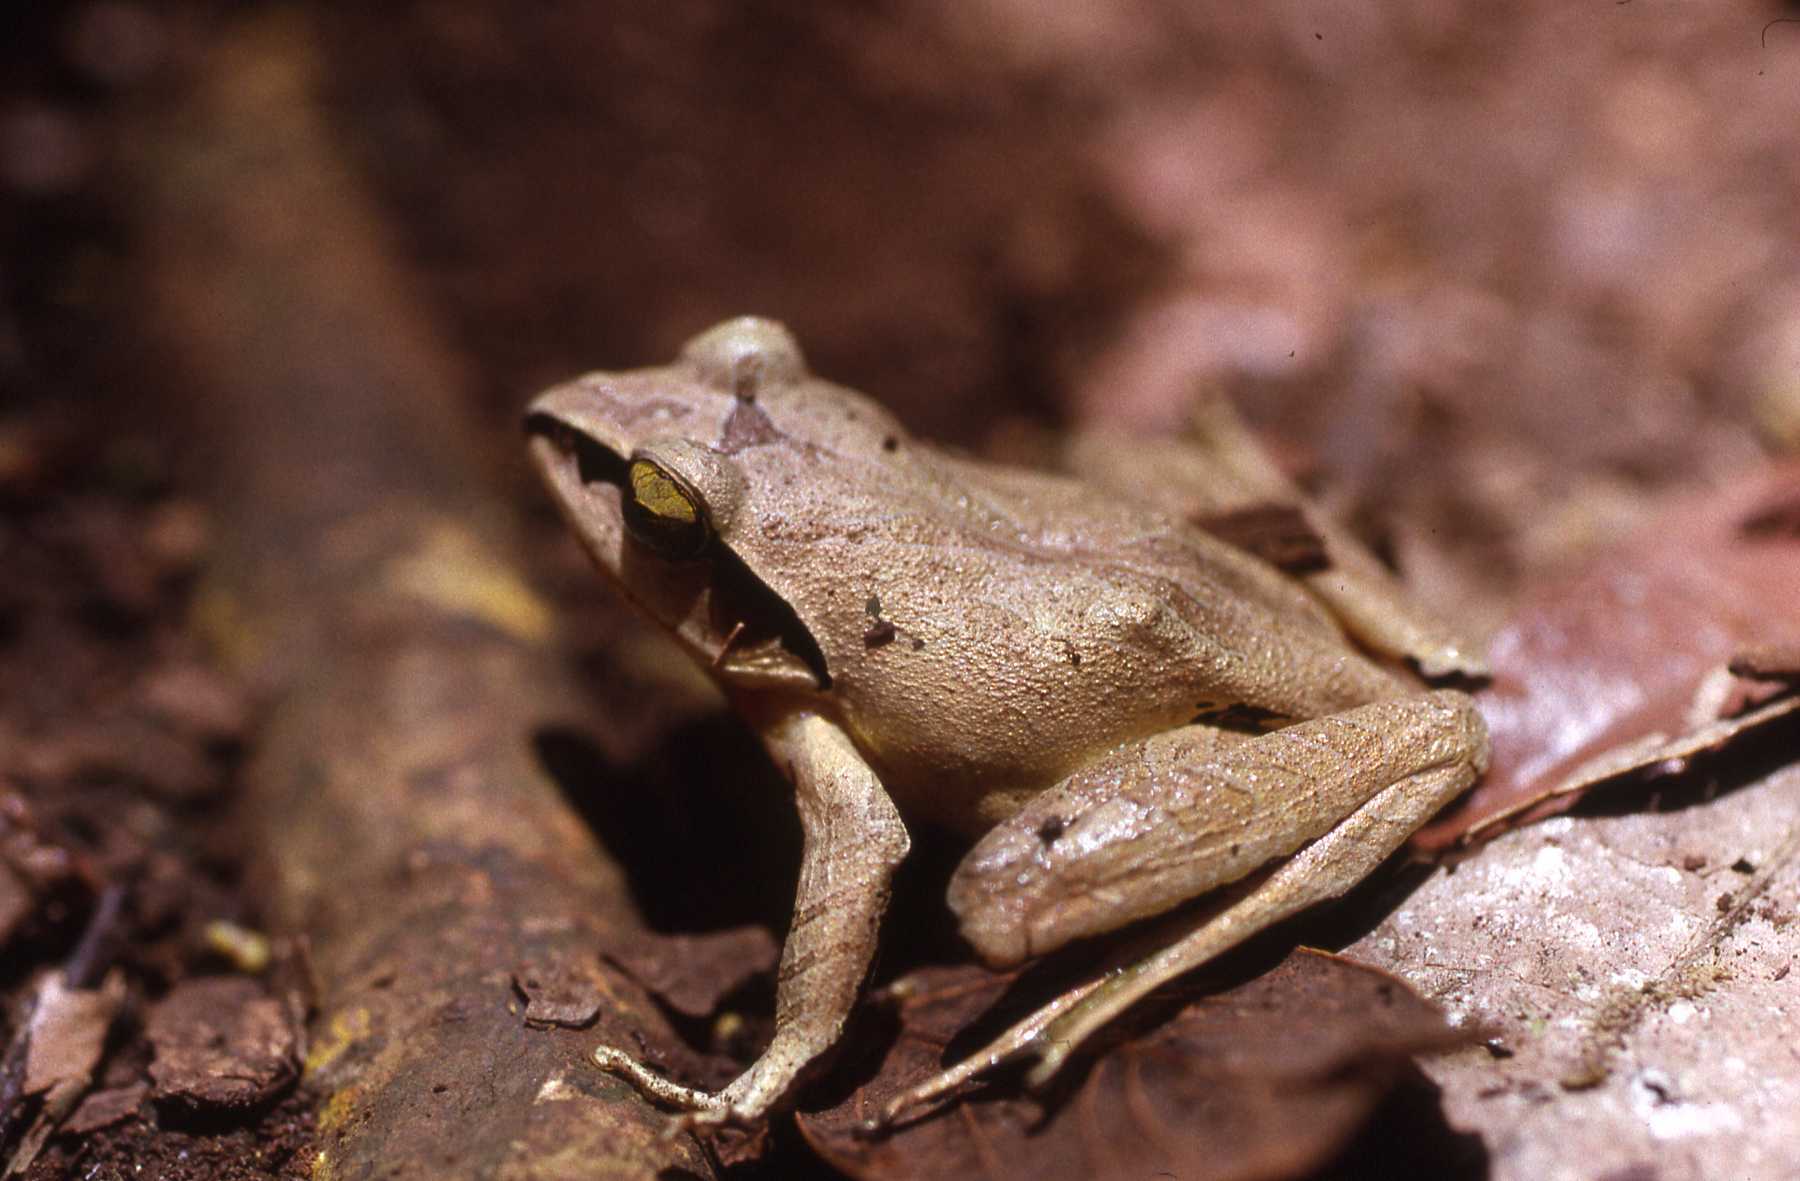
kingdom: Animalia
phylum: Chordata
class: Amphibia
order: Anura
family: Mantellidae
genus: Aglyptodactylus
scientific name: Aglyptodactylus madagascariensis
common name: Madagascar jumping frog
